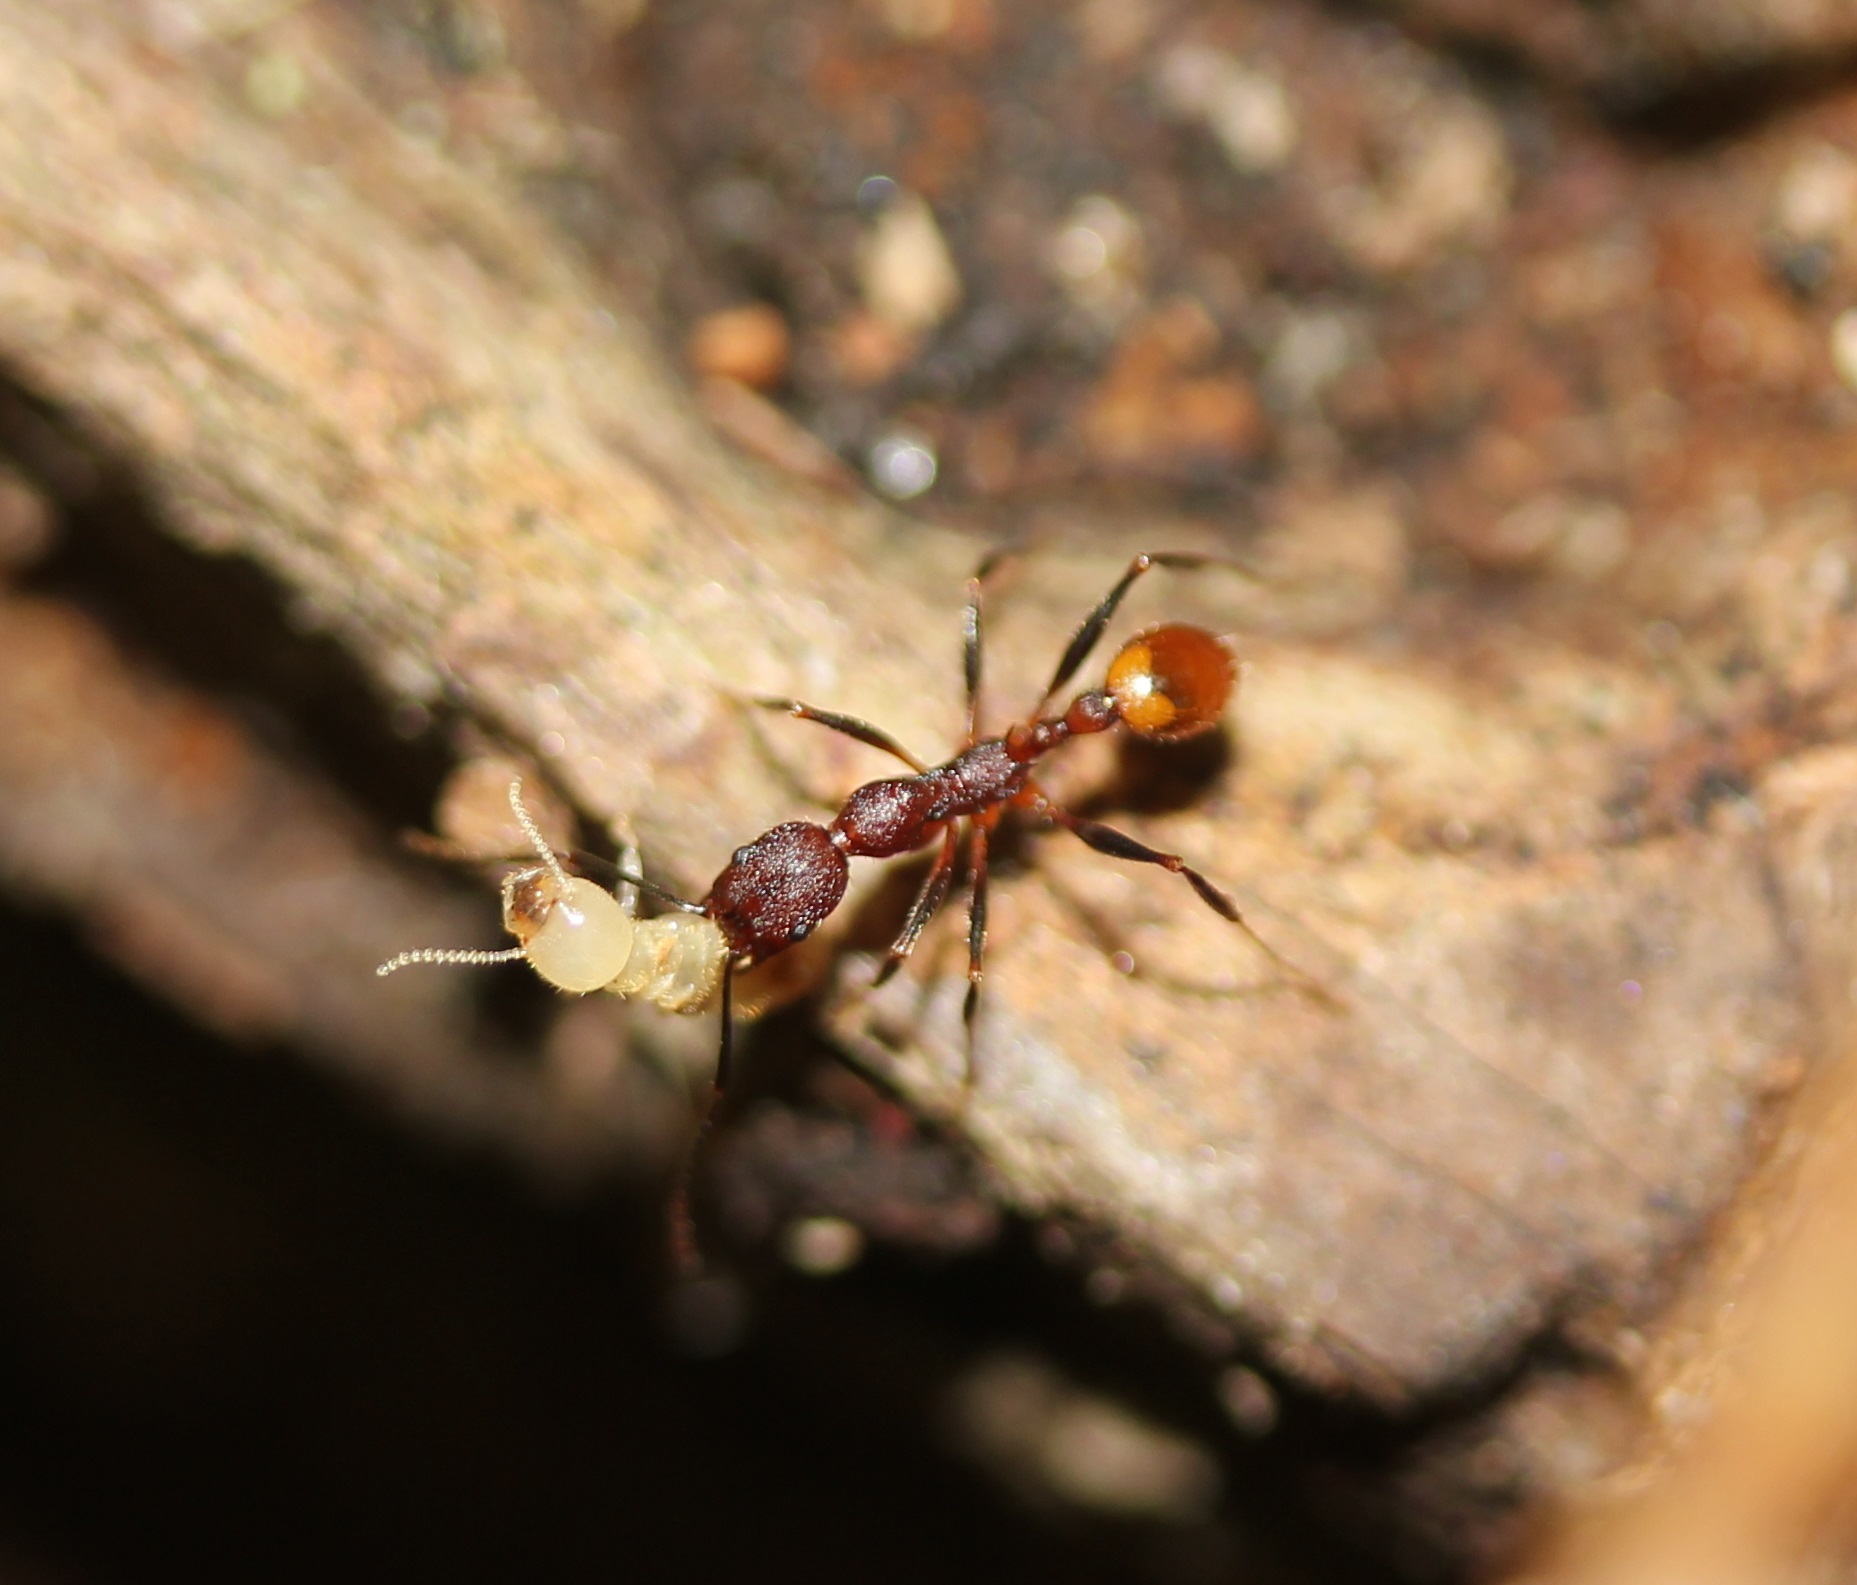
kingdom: Animalia
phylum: Arthropoda
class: Insecta
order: Hymenoptera
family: Formicidae
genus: Aphaenogaster
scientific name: Aphaenogaster lamellidens
